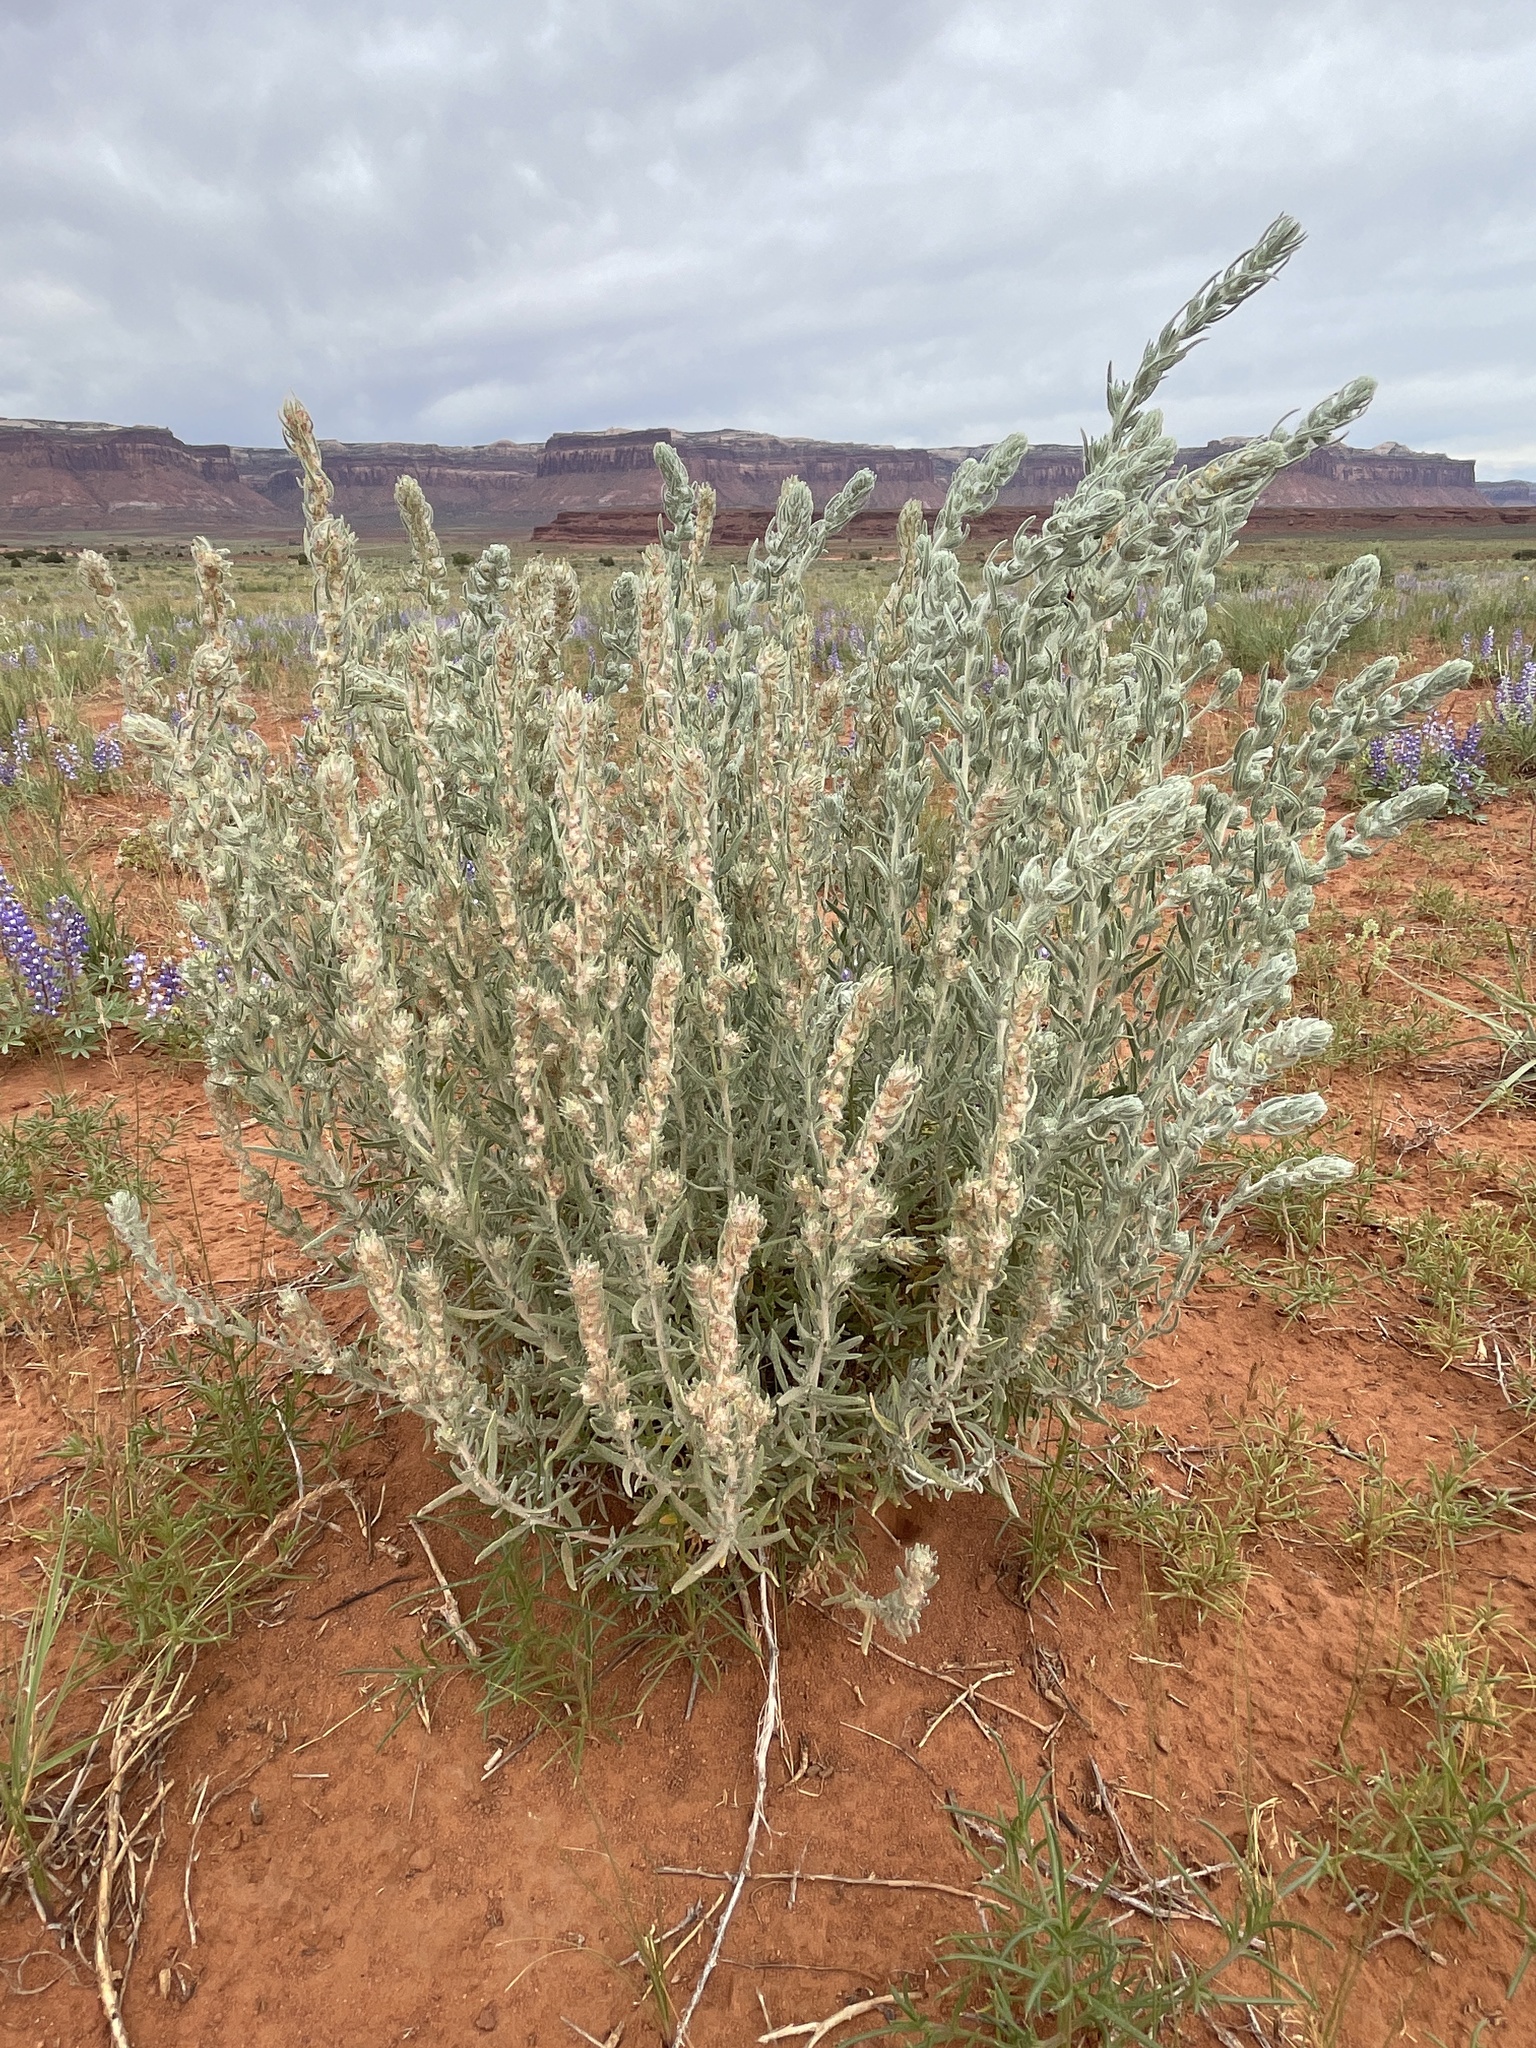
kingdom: Plantae
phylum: Tracheophyta
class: Magnoliopsida
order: Caryophyllales
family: Amaranthaceae
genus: Krascheninnikovia
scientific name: Krascheninnikovia lanata
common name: Winterfat
